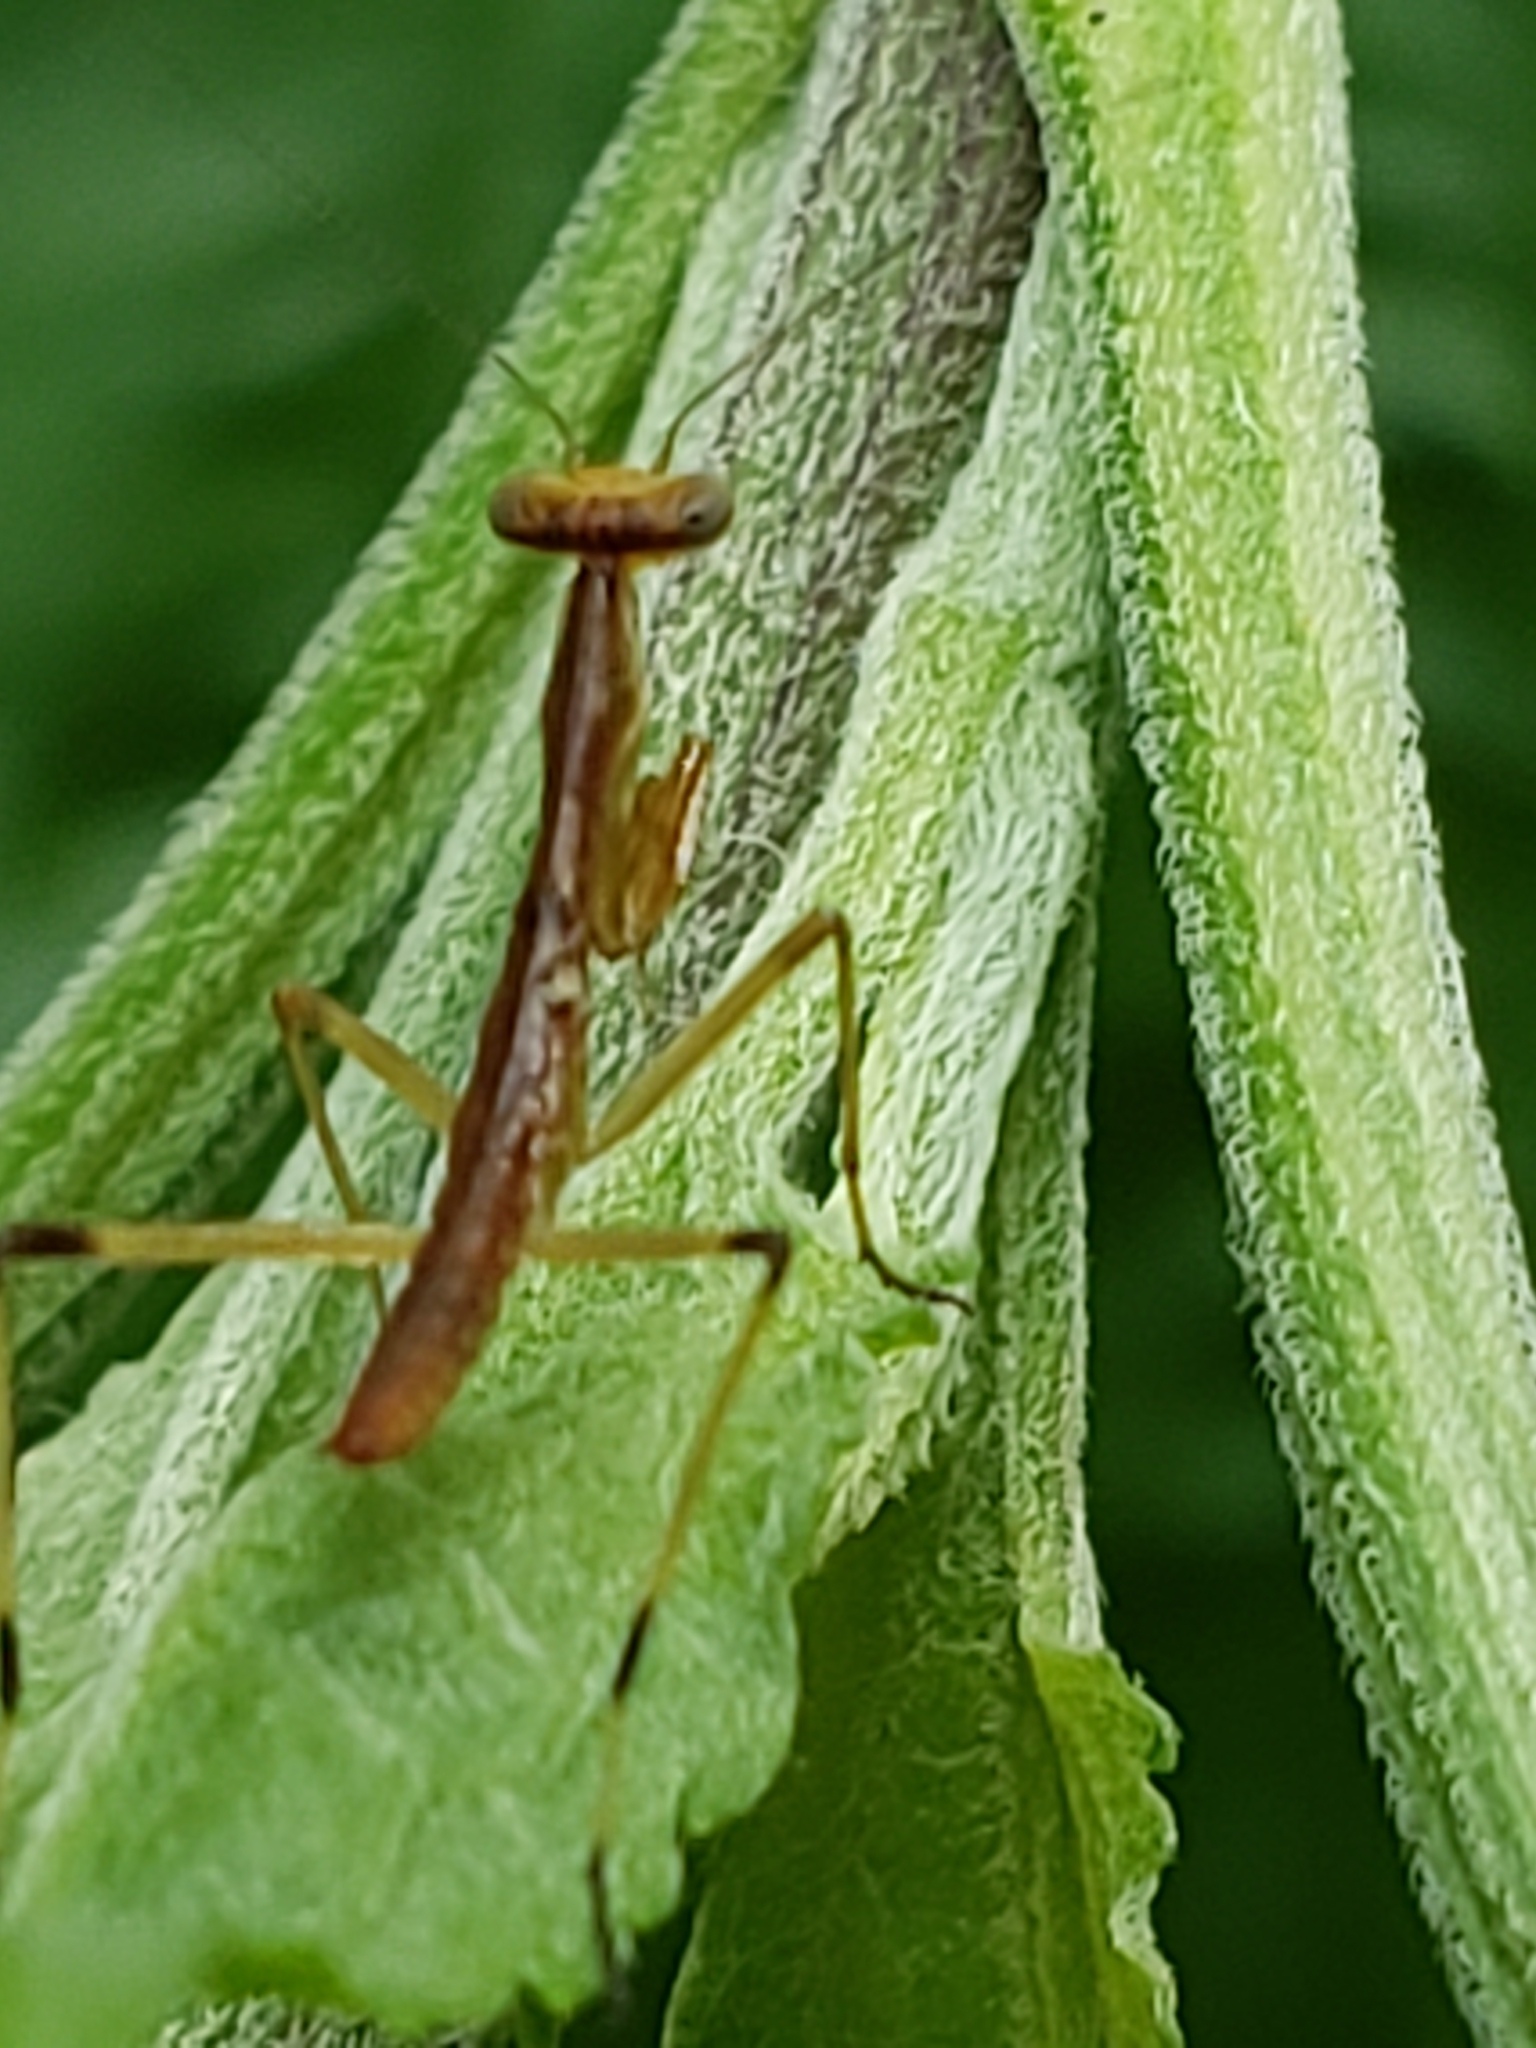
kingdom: Animalia
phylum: Arthropoda
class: Insecta
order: Mantodea
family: Mantidae
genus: Stagmomantis
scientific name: Stagmomantis carolina
